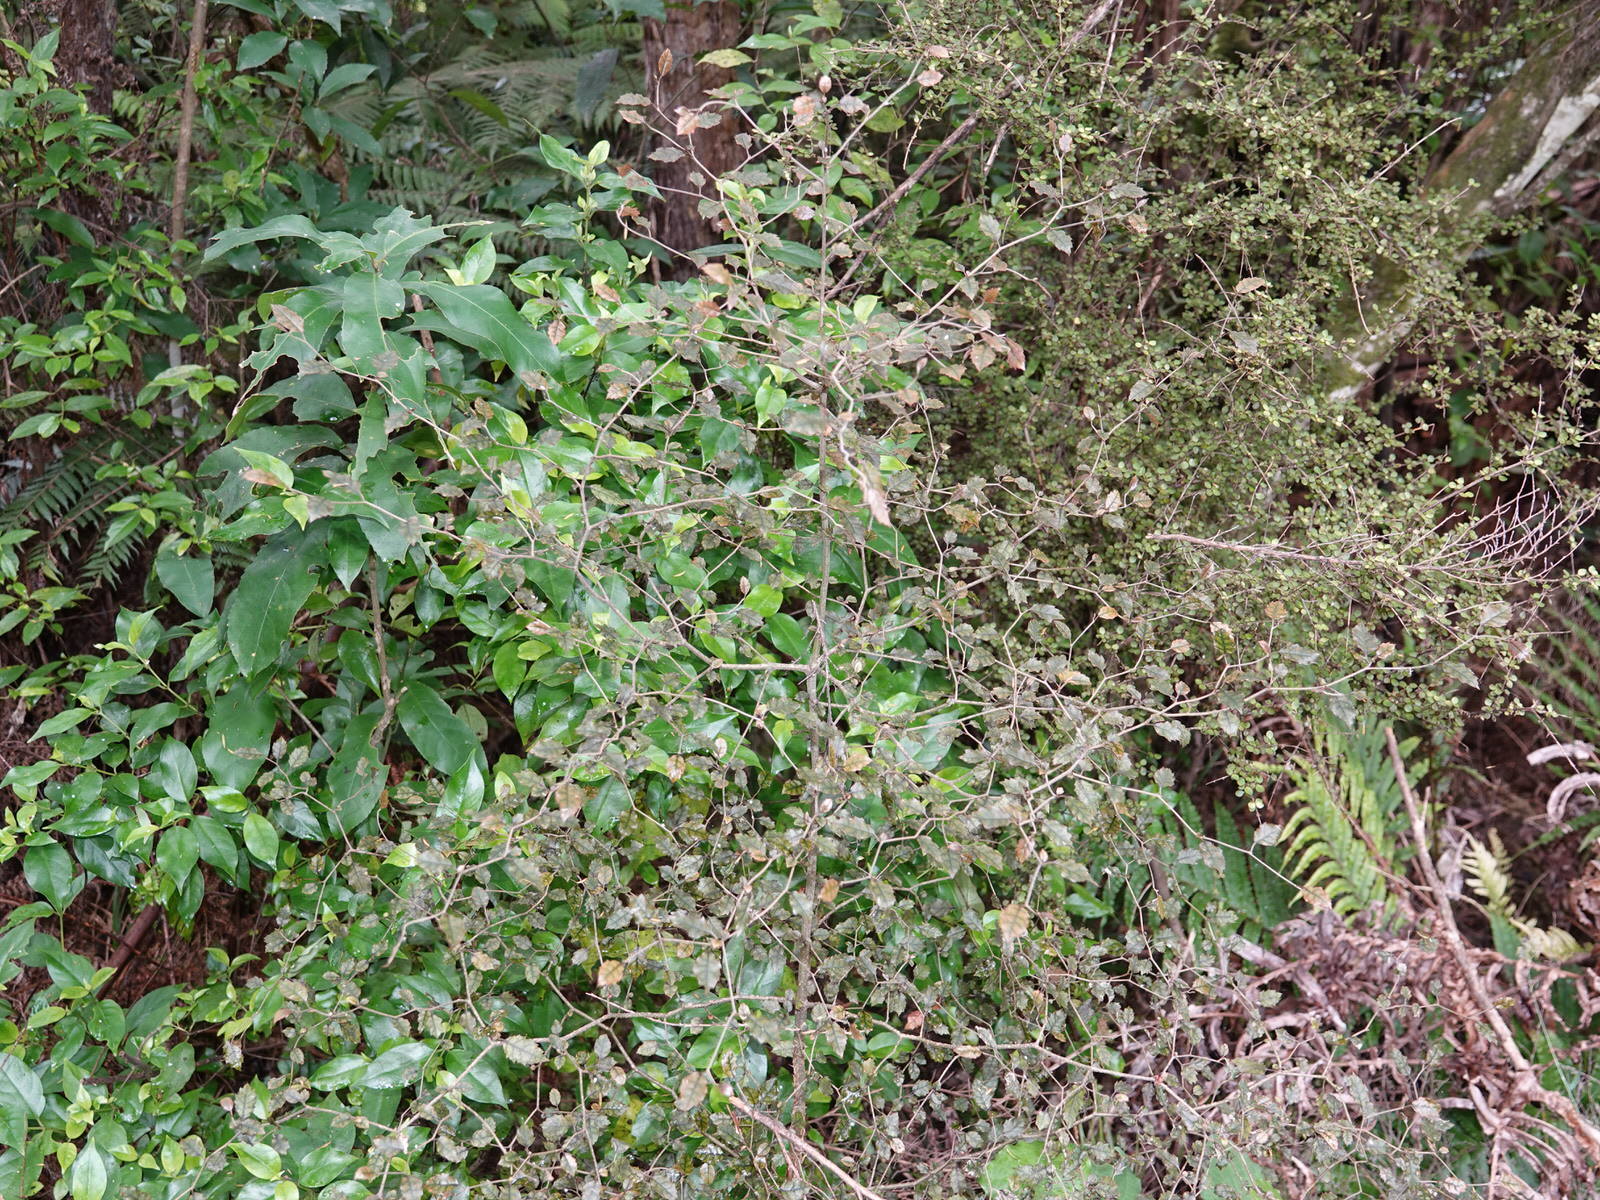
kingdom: Plantae
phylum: Tracheophyta
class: Magnoliopsida
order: Asterales
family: Rousseaceae
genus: Carpodetus
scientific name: Carpodetus serratus
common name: White mapau
